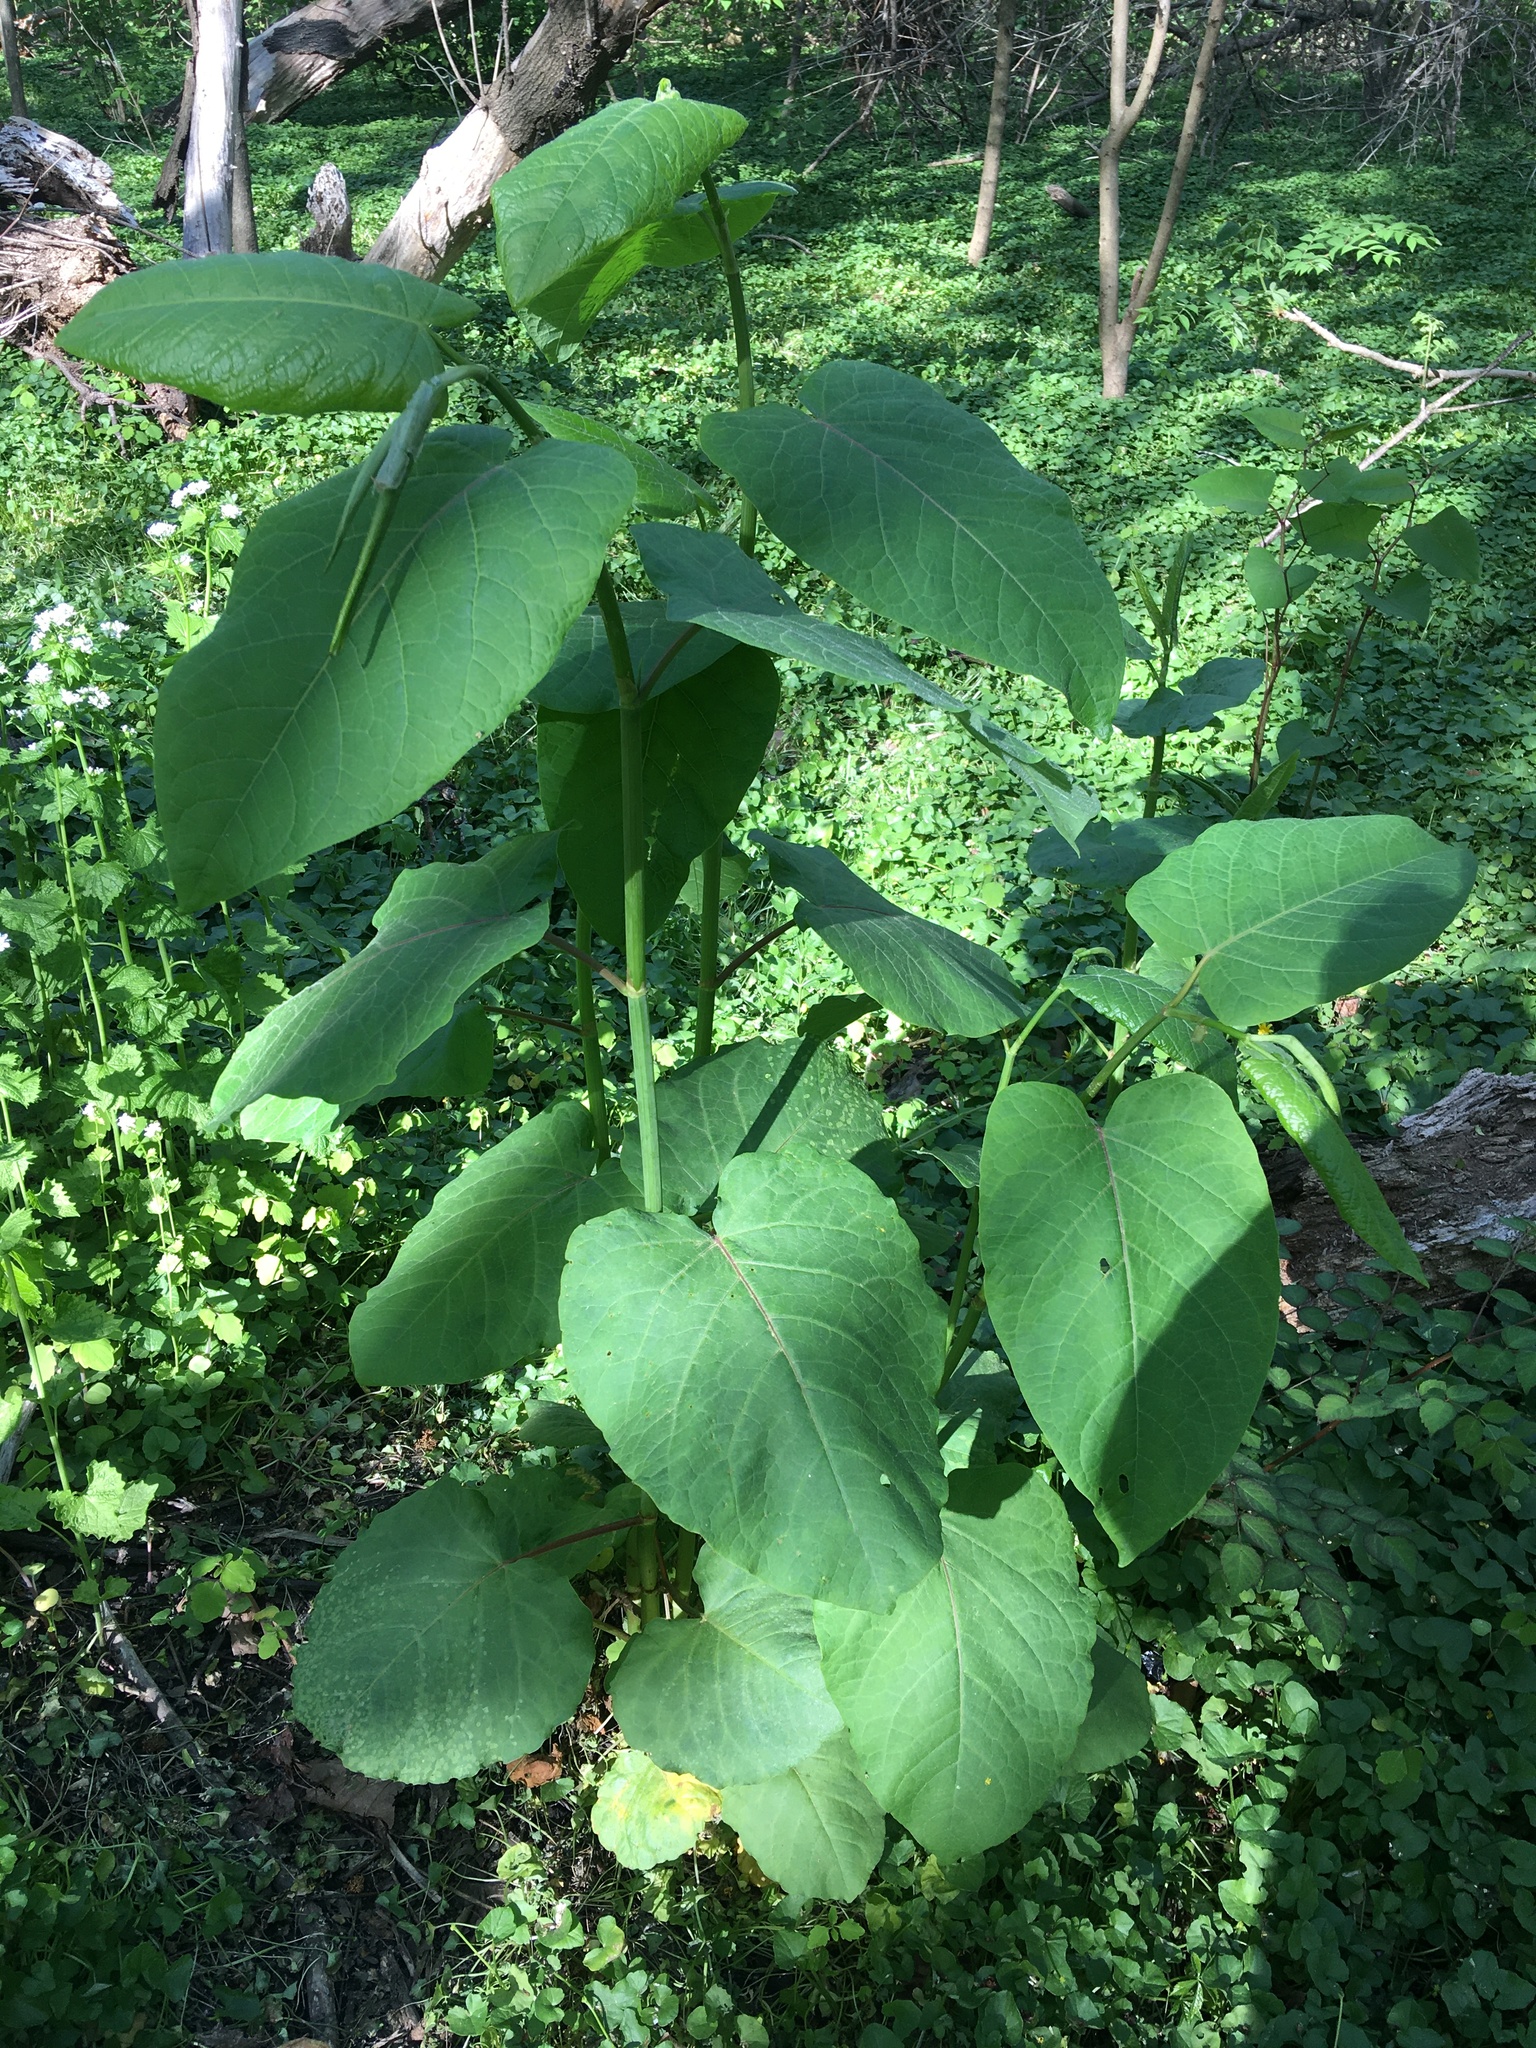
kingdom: Plantae
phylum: Tracheophyta
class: Magnoliopsida
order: Caryophyllales
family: Polygonaceae
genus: Reynoutria
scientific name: Reynoutria sachalinensis
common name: Giant knotweed
